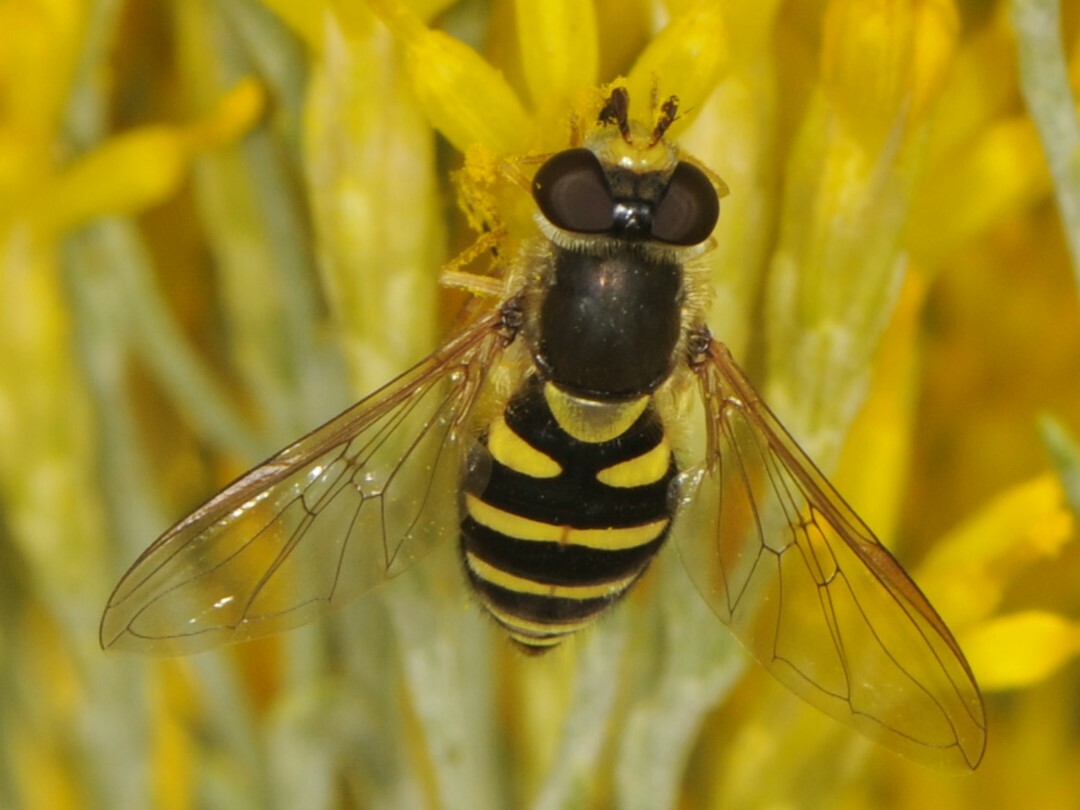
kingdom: Animalia
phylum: Arthropoda
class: Insecta
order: Diptera
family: Syrphidae
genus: Syrphus
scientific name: Syrphus opinator
